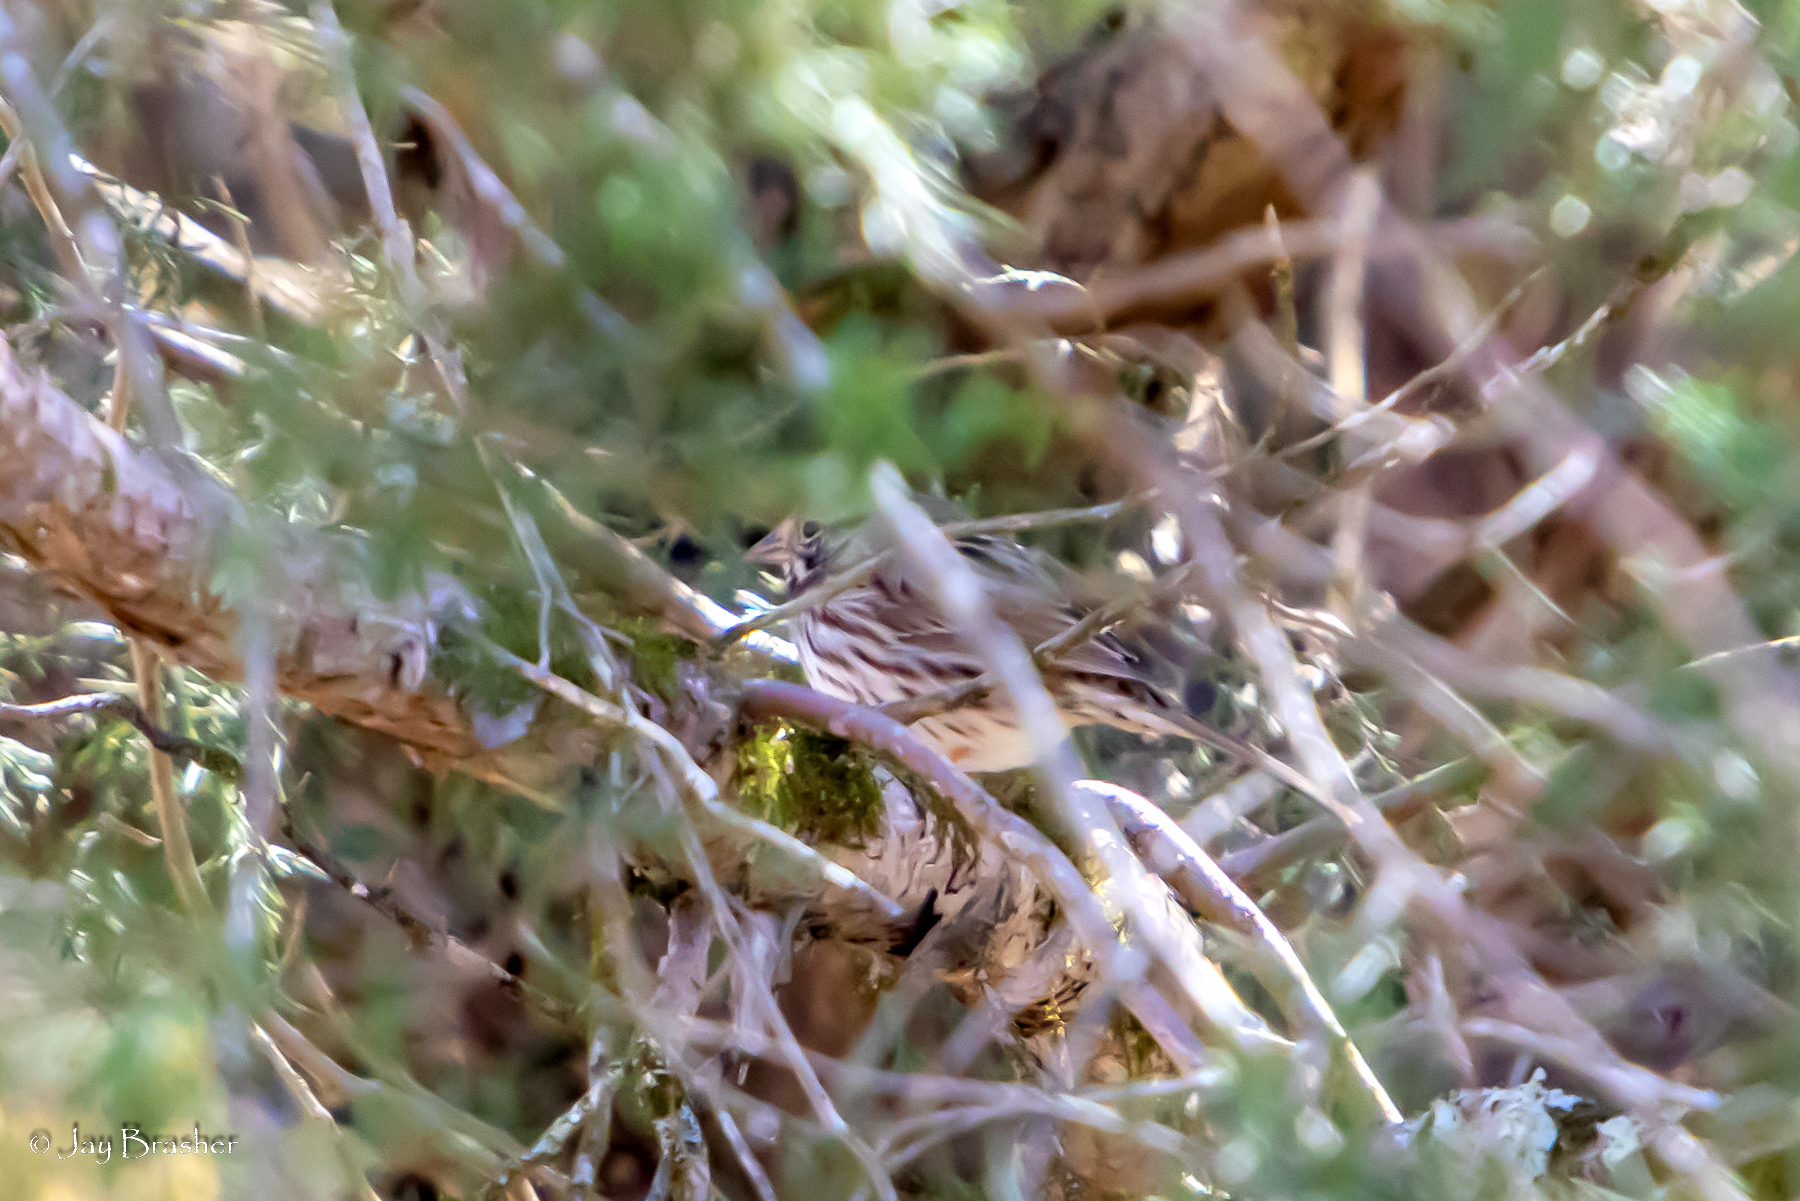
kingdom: Animalia
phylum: Chordata
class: Aves
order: Passeriformes
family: Passerellidae
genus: Melospiza
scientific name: Melospiza melodia
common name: Song sparrow
